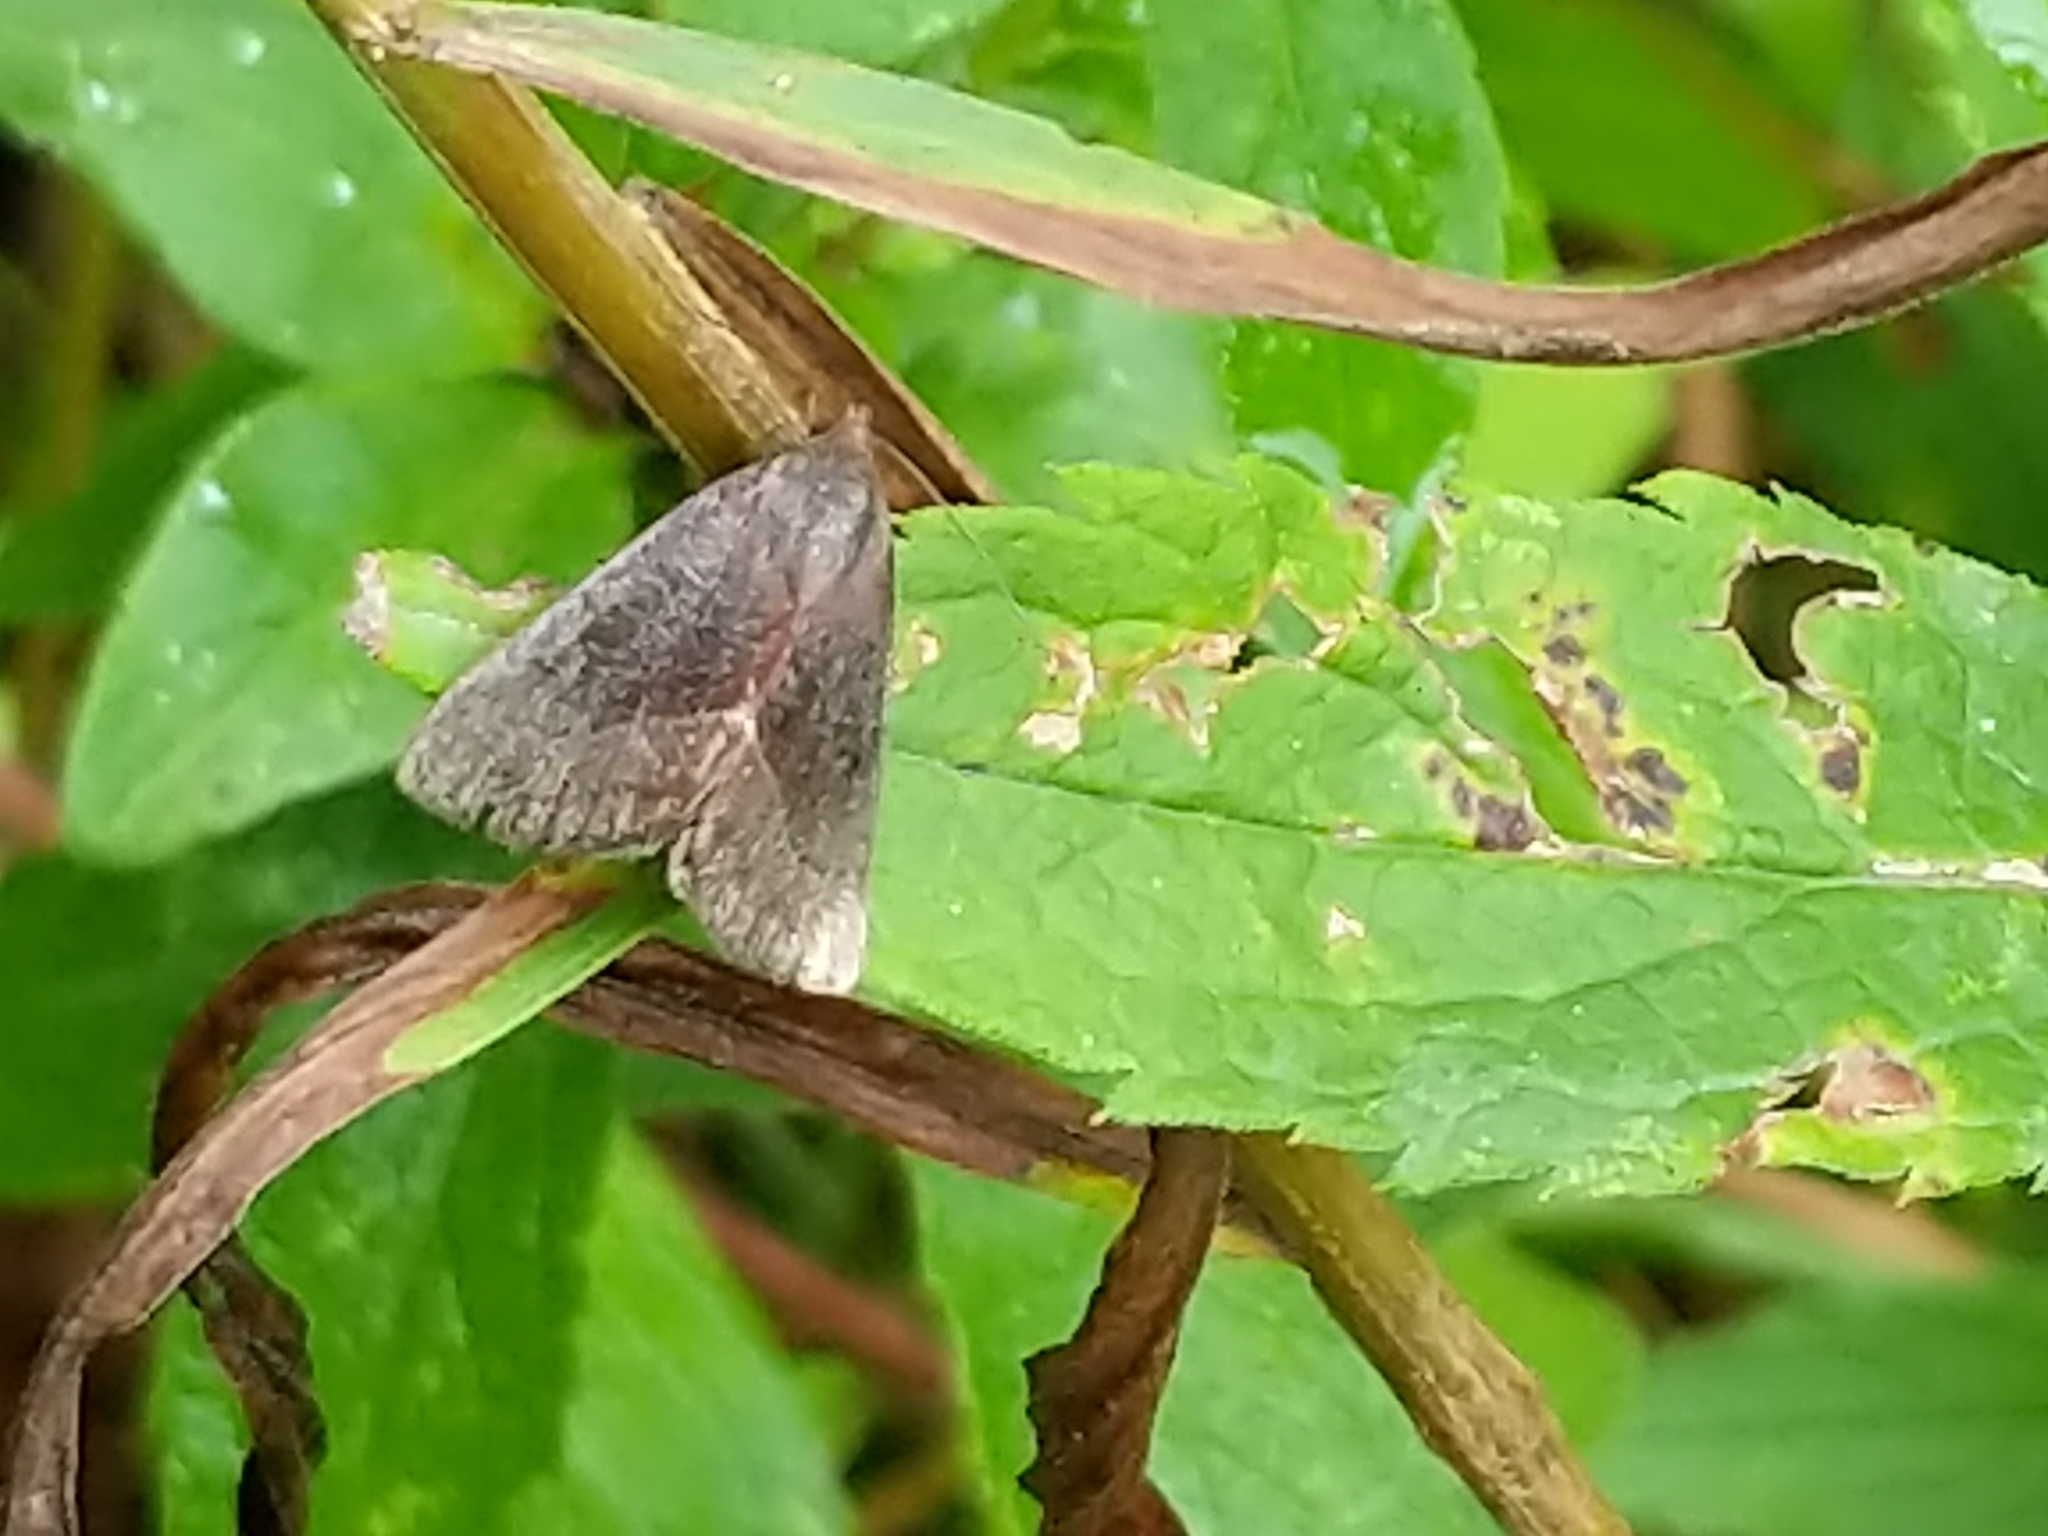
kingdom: Animalia
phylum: Arthropoda
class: Insecta
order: Lepidoptera
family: Noctuidae
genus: Galgula
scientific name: Galgula partita
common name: Wedgeling
